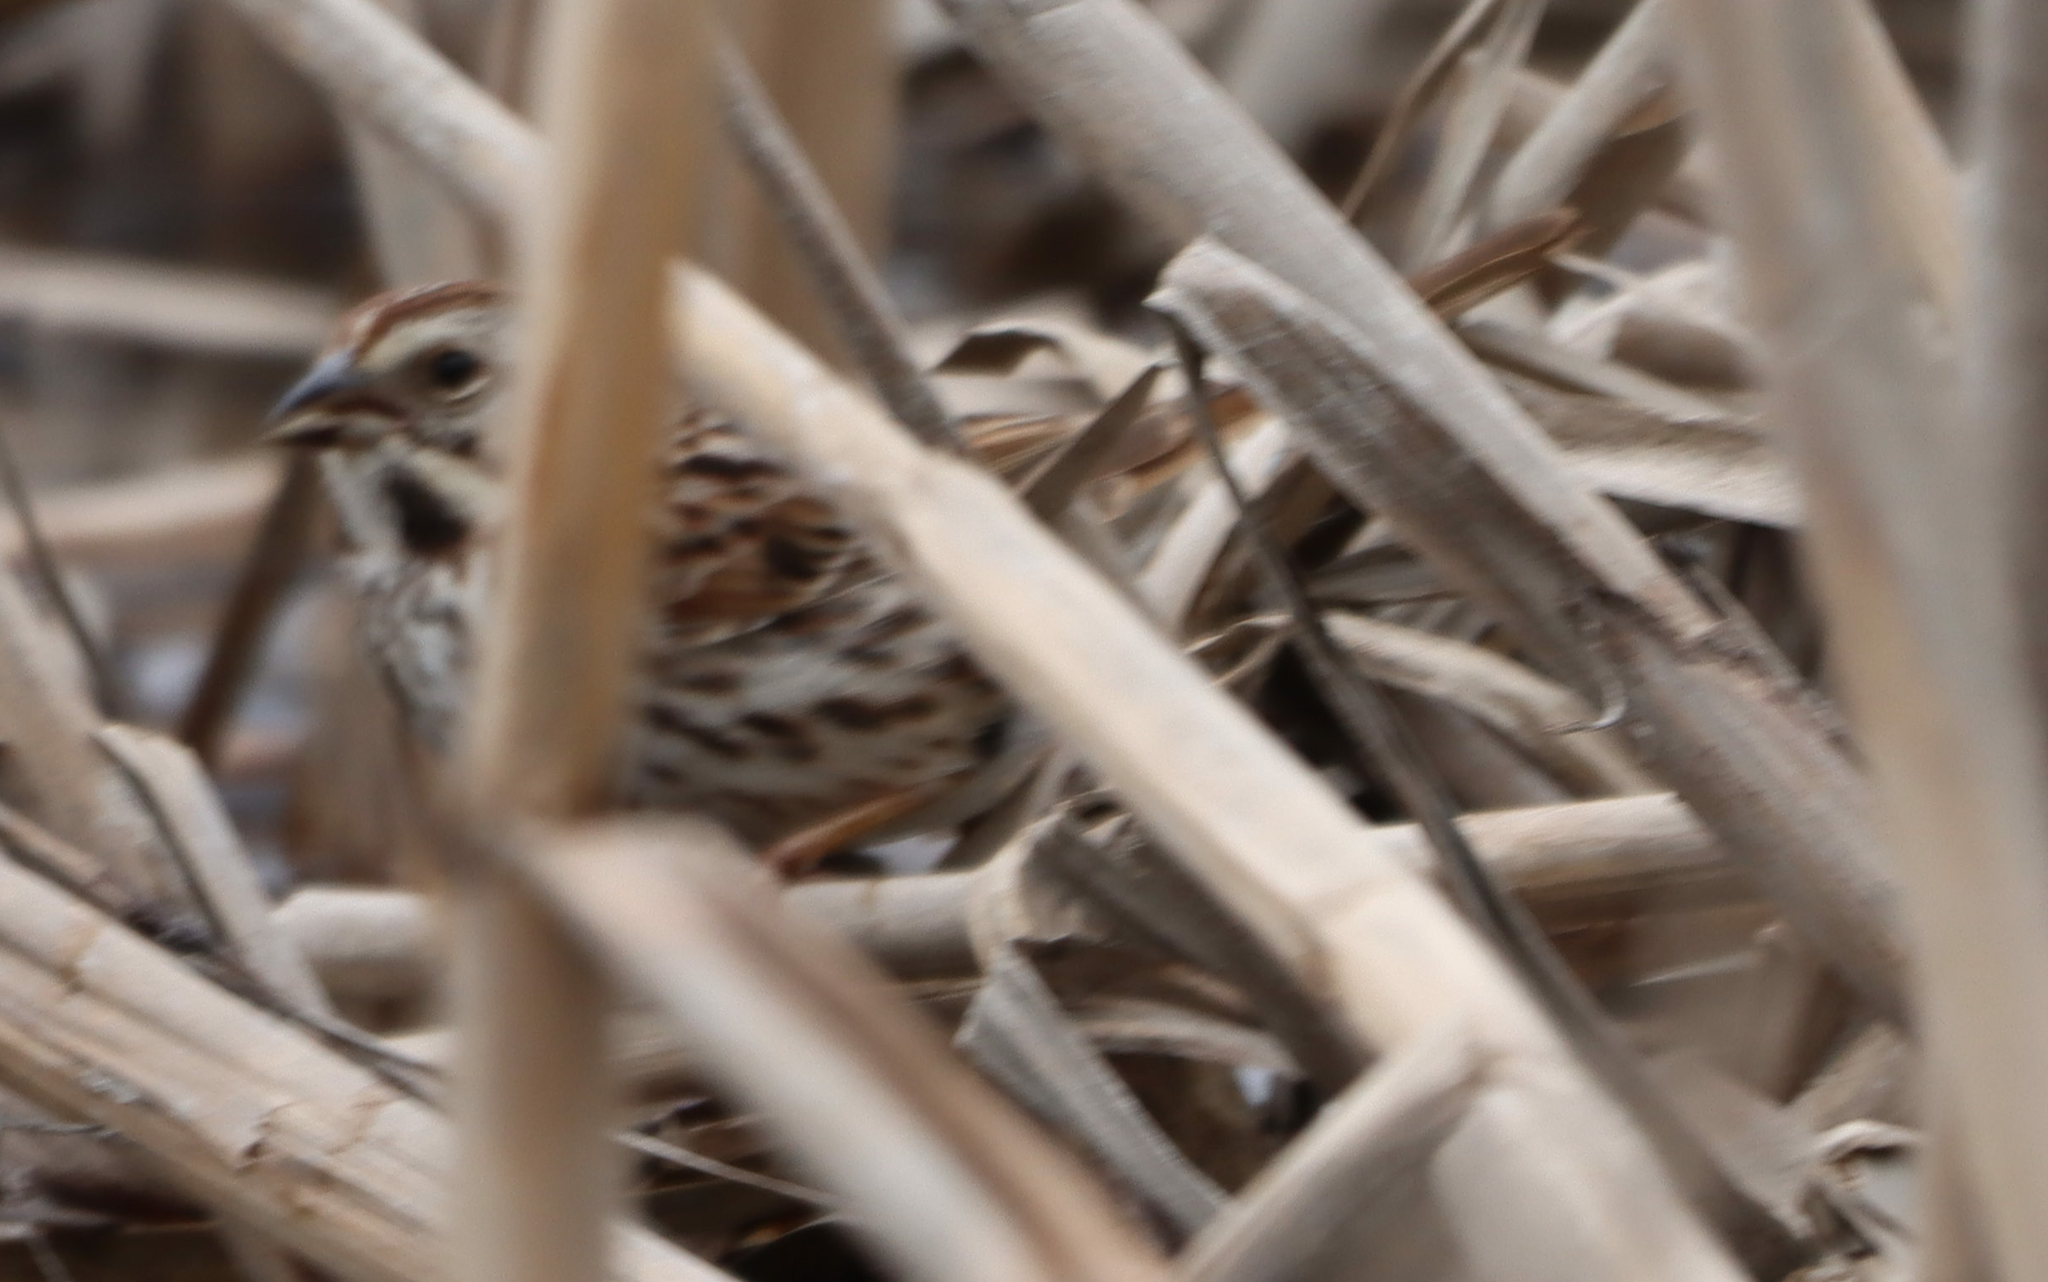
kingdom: Animalia
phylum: Chordata
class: Aves
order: Passeriformes
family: Passerellidae
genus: Melospiza
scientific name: Melospiza melodia
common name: Song sparrow
